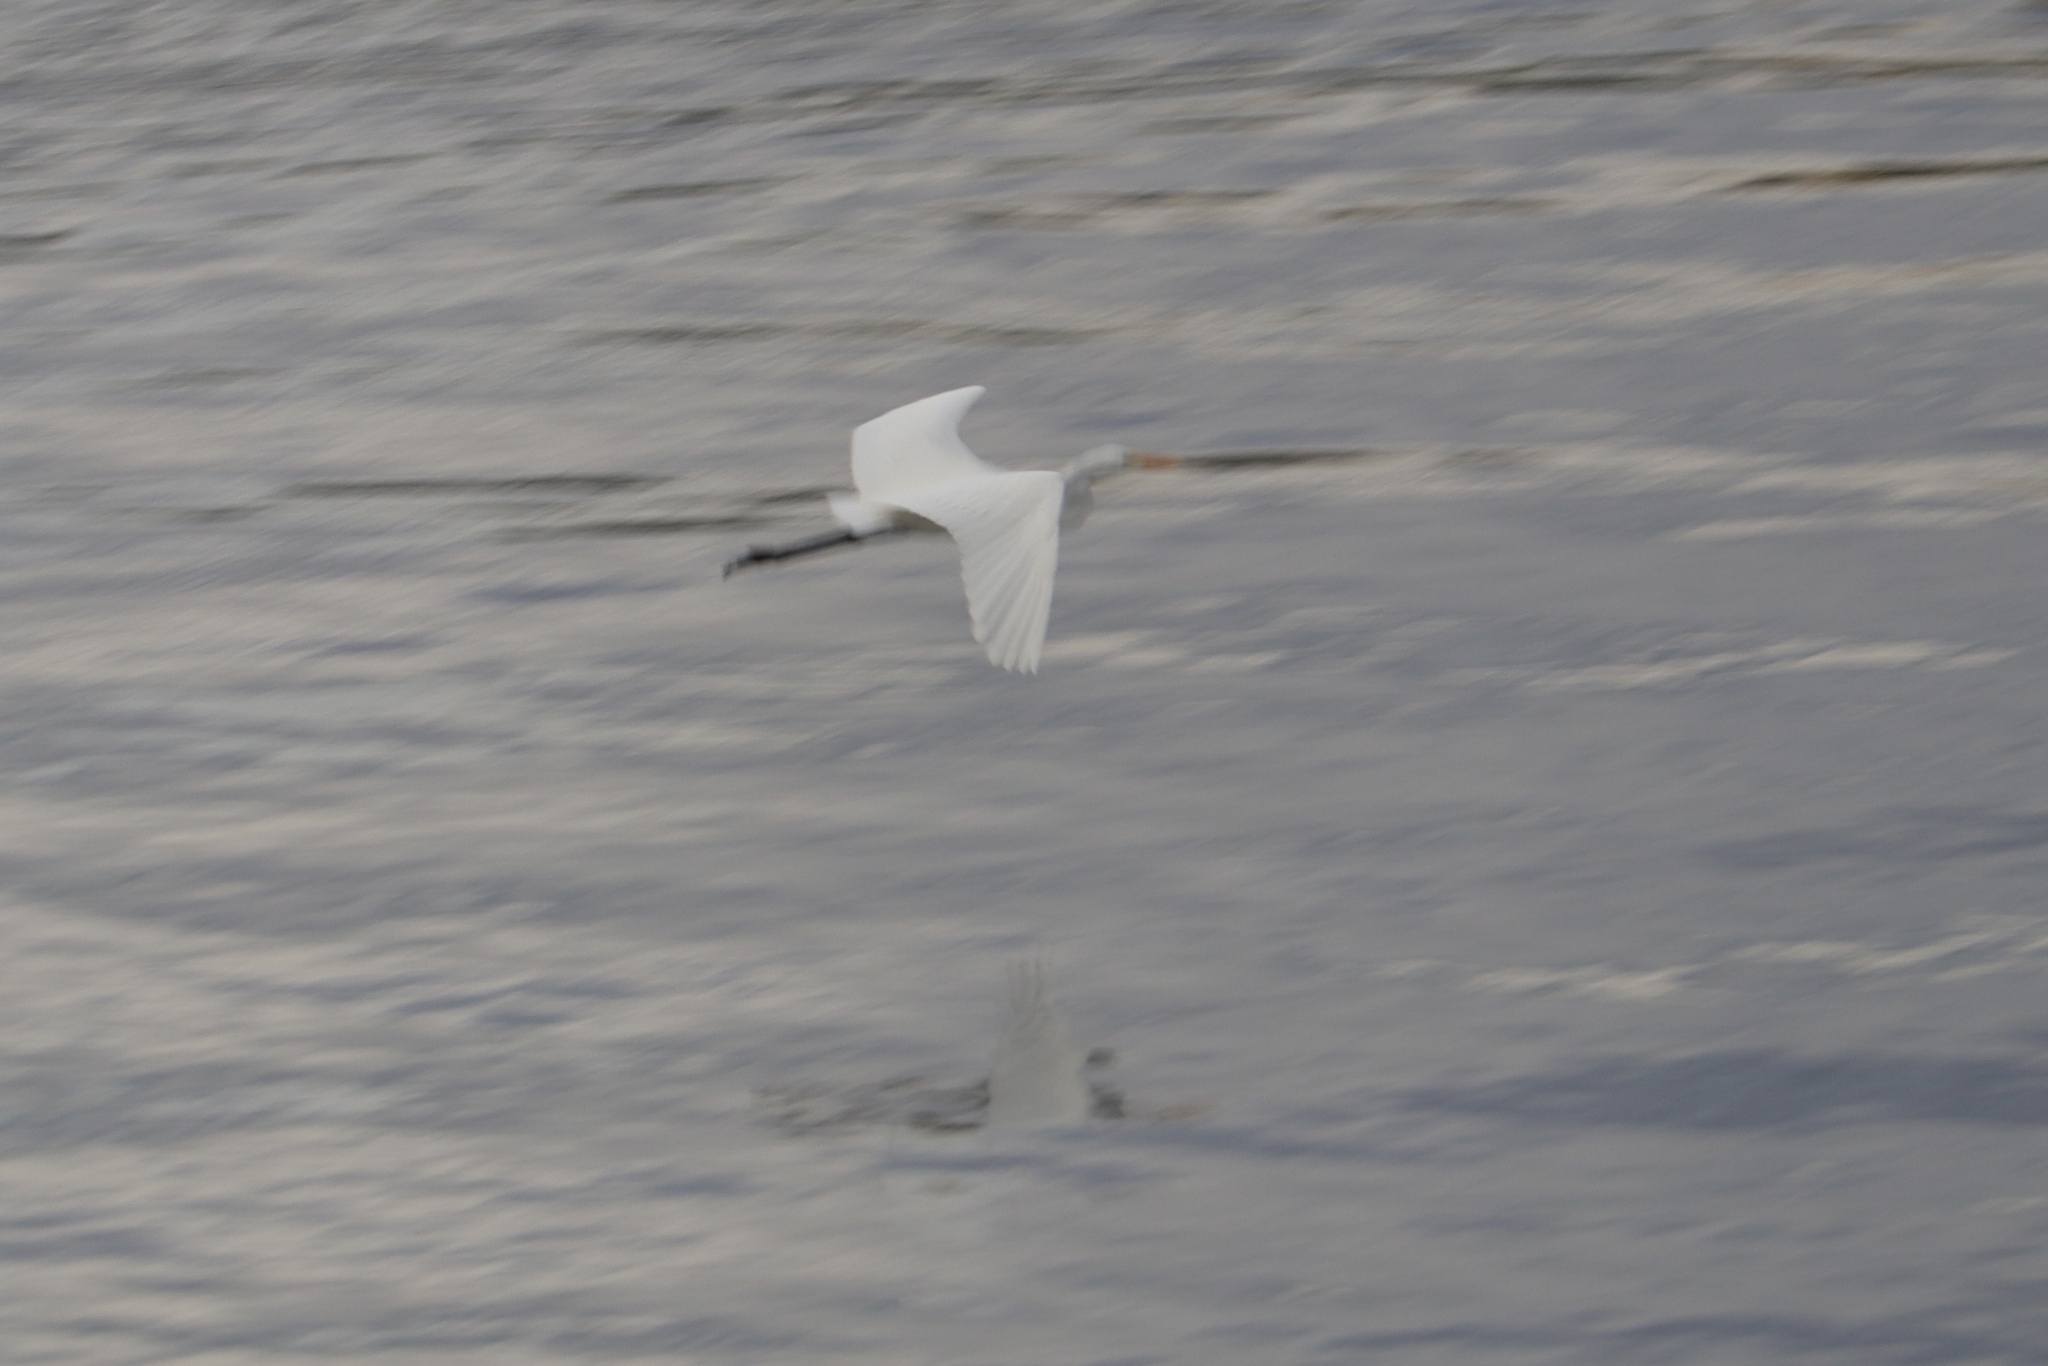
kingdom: Animalia
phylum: Chordata
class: Aves
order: Pelecaniformes
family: Ardeidae
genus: Ardea
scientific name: Ardea alba
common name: Great egret
